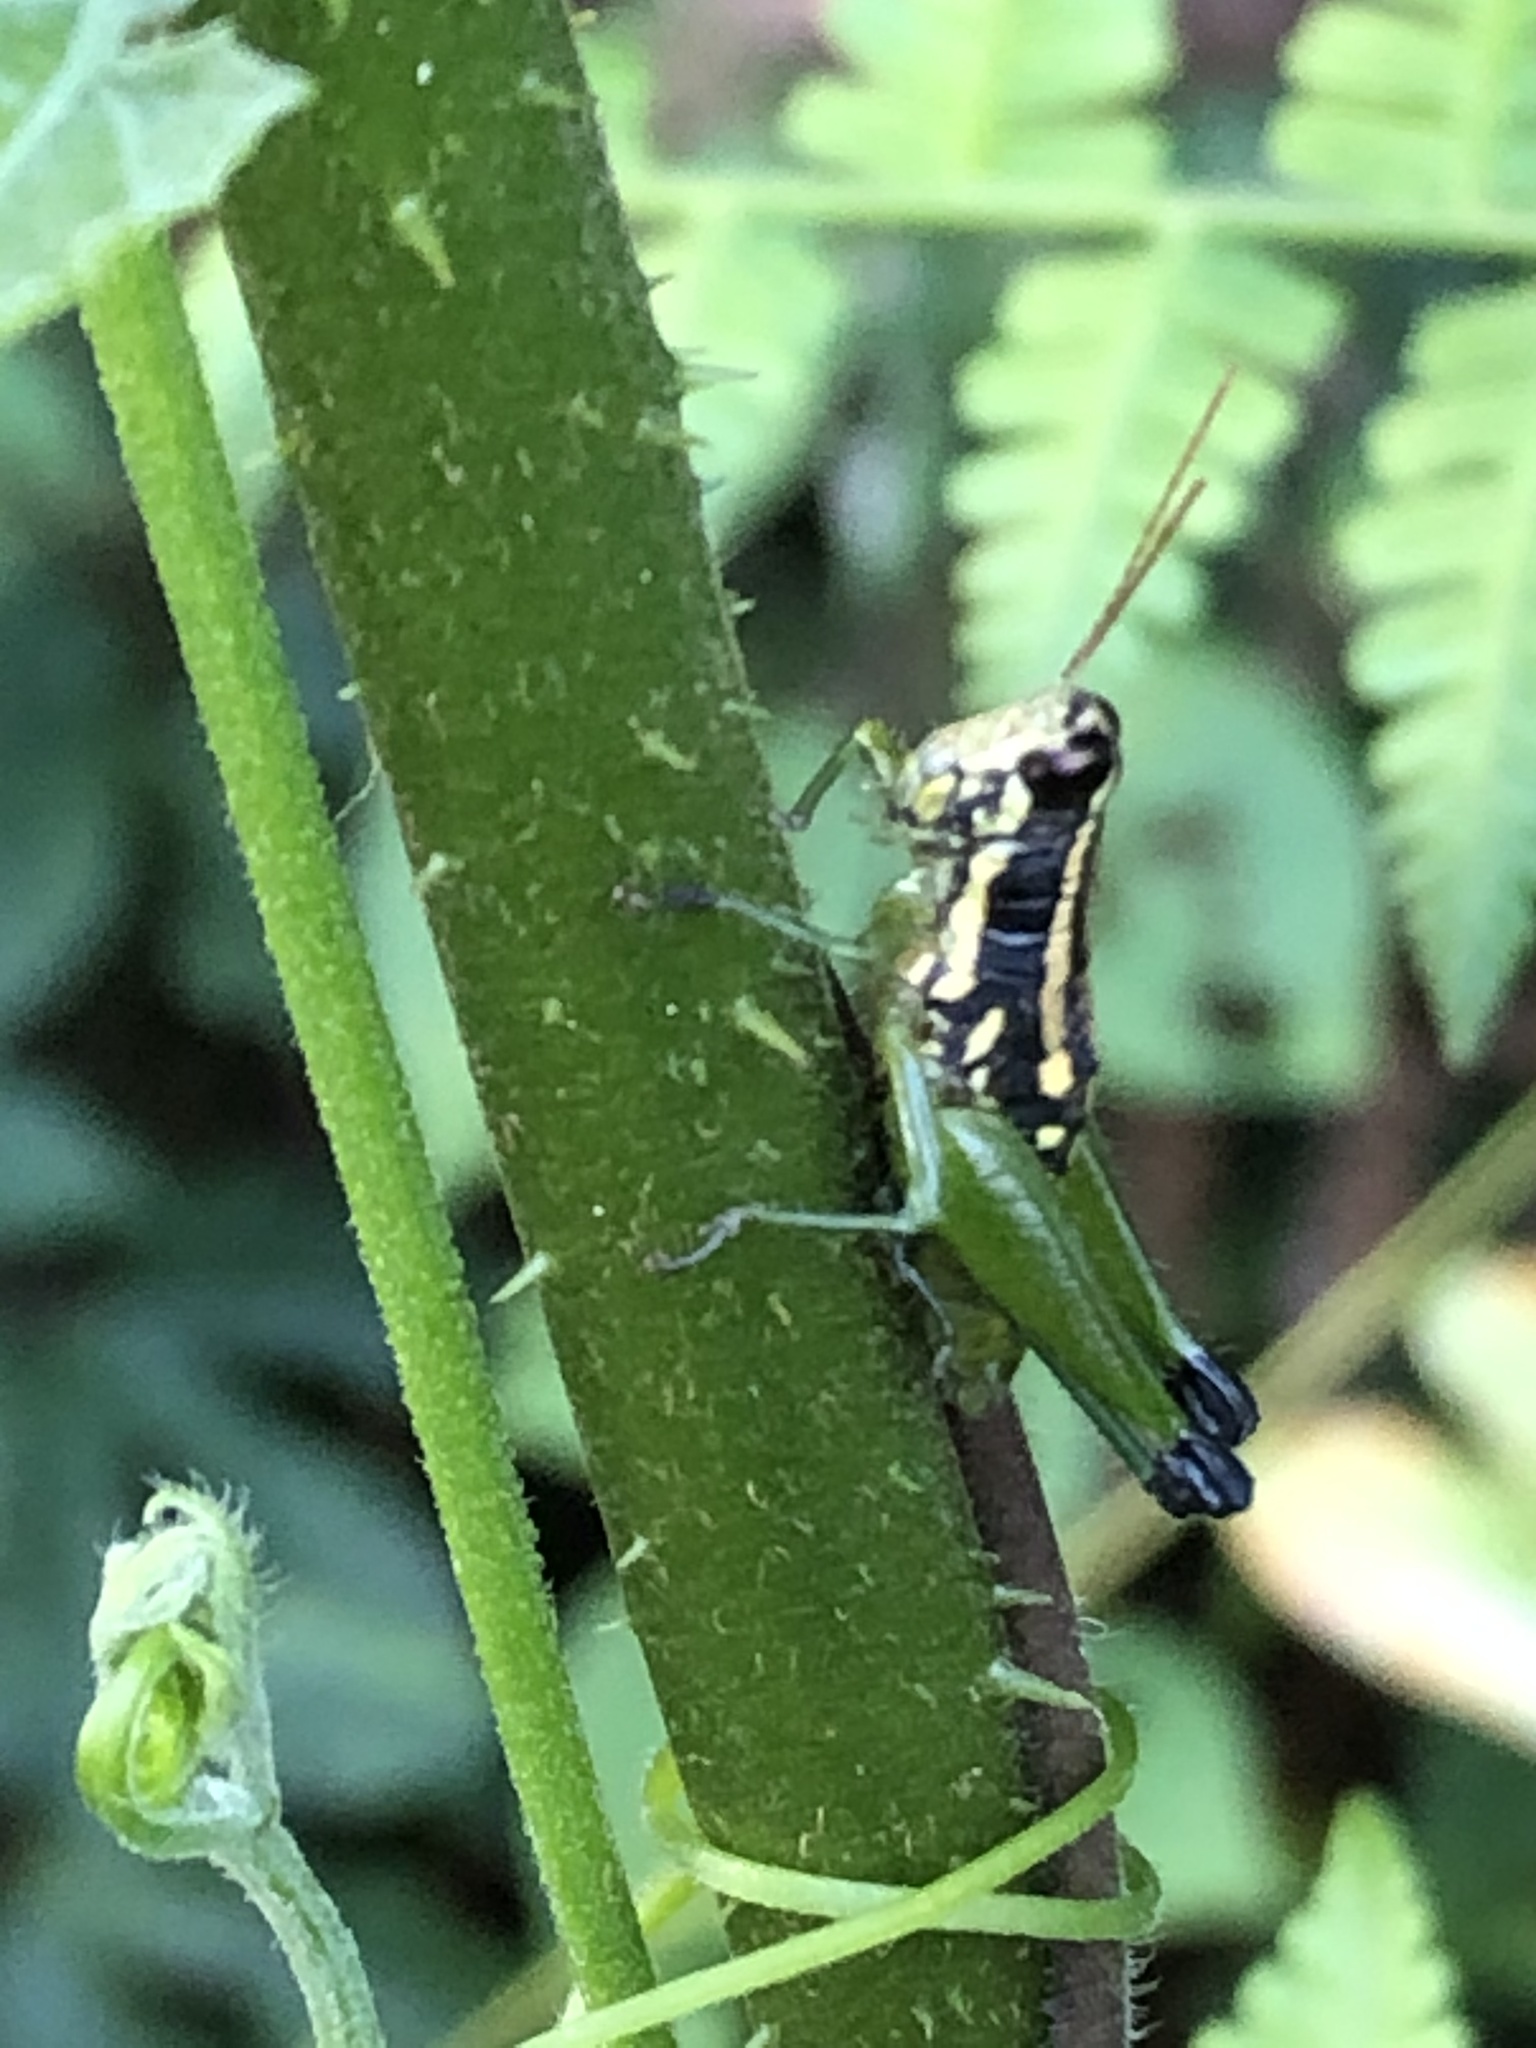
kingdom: Animalia
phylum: Arthropoda
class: Insecta
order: Orthoptera
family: Acrididae
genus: Eusitalces
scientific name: Eusitalces vittatus
